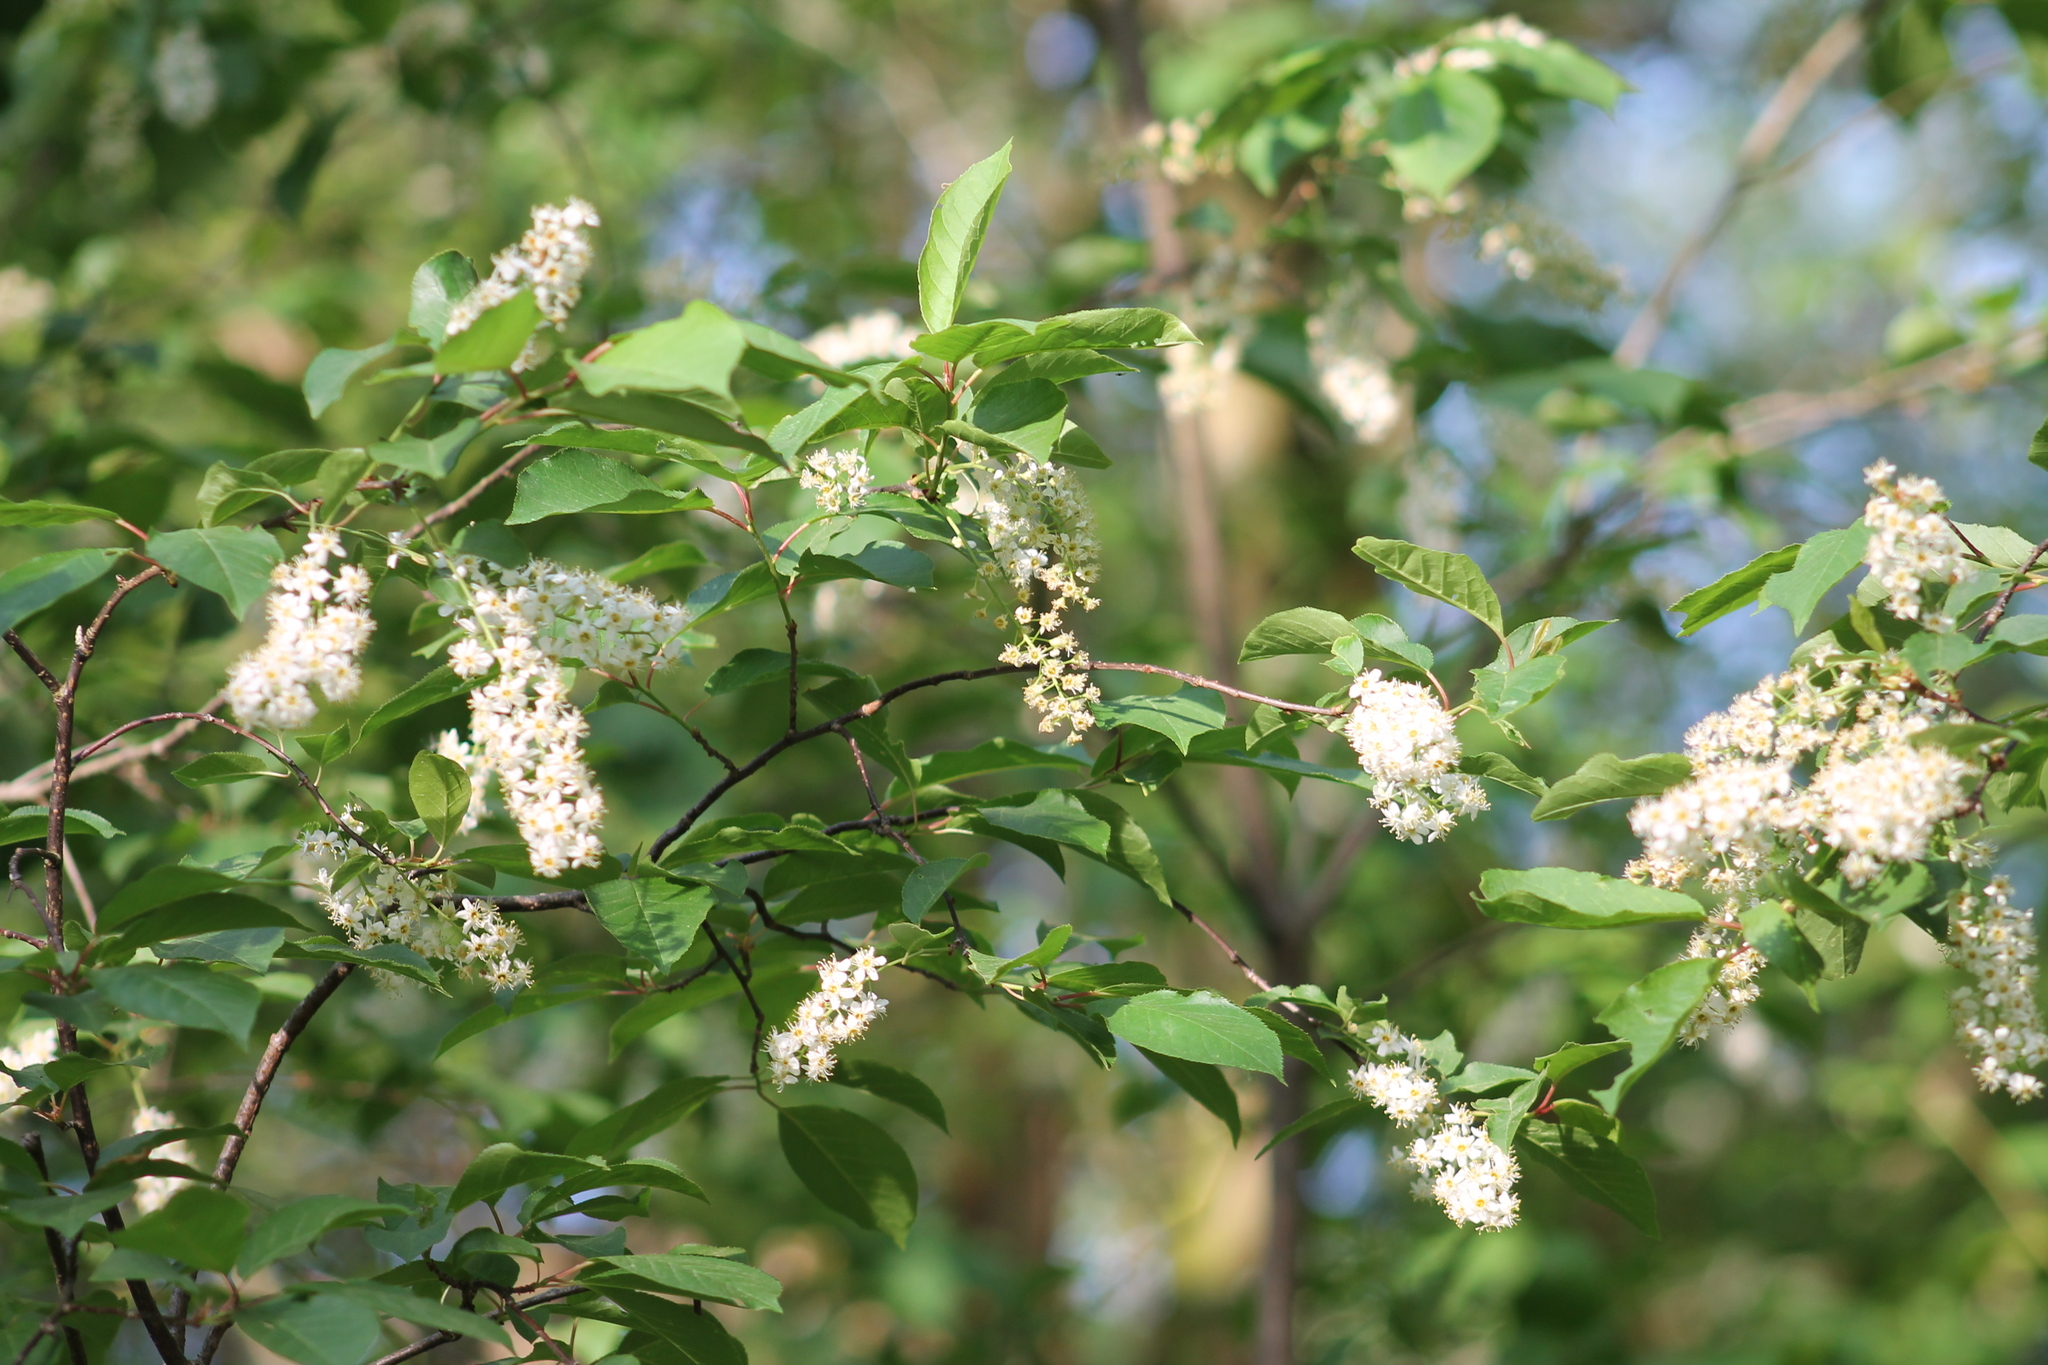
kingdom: Plantae
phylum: Tracheophyta
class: Magnoliopsida
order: Rosales
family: Rosaceae
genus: Prunus
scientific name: Prunus padus
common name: Bird cherry
